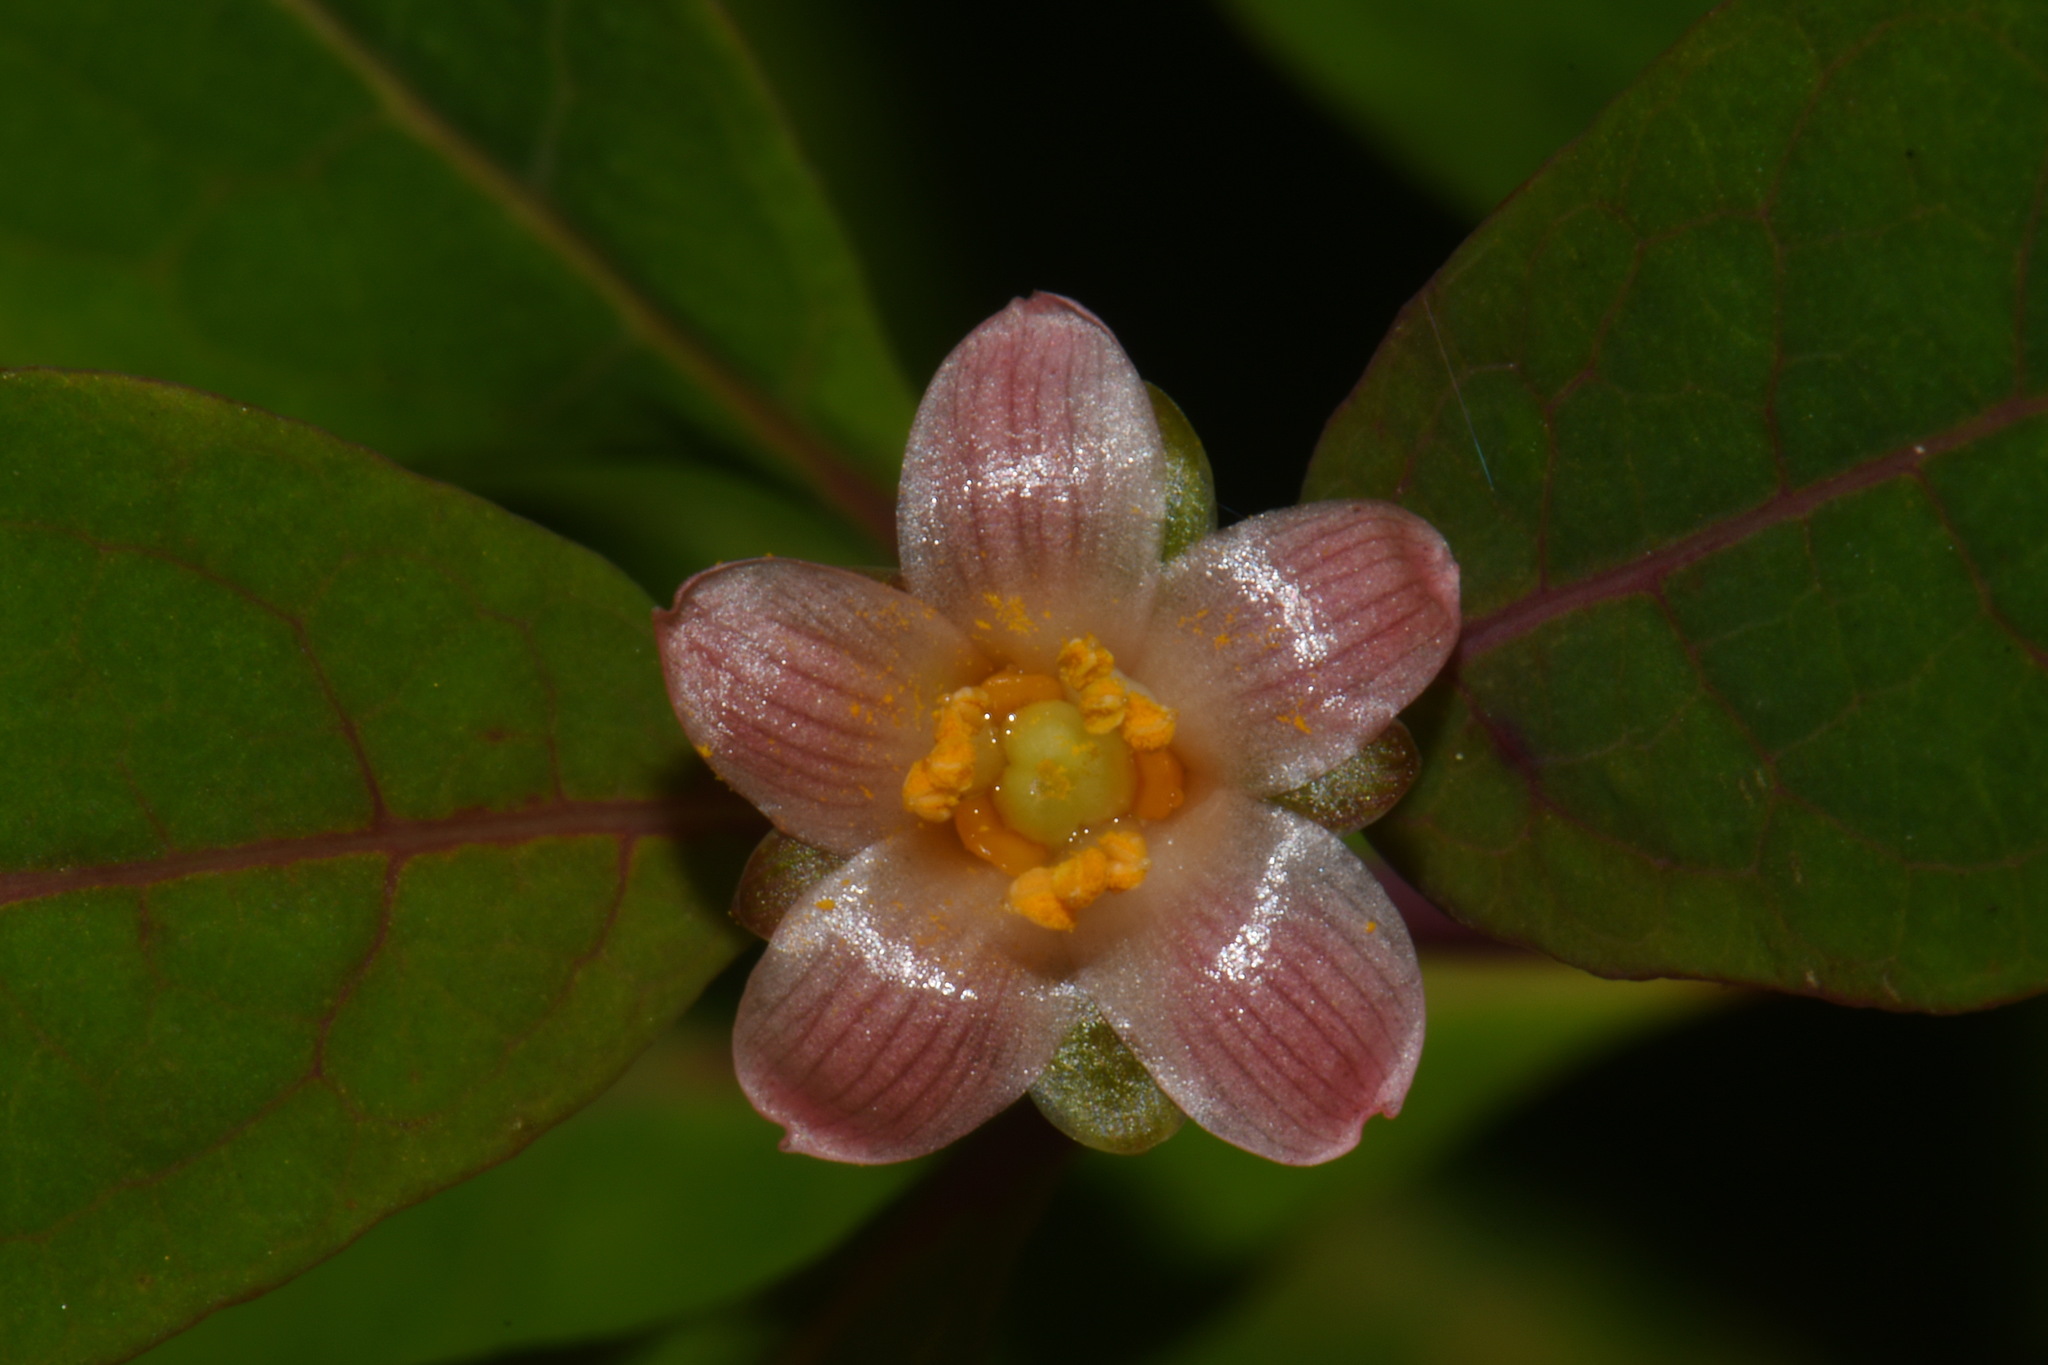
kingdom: Plantae
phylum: Tracheophyta
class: Magnoliopsida
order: Malpighiales
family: Hypericaceae
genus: Triadenum
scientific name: Triadenum walteri
